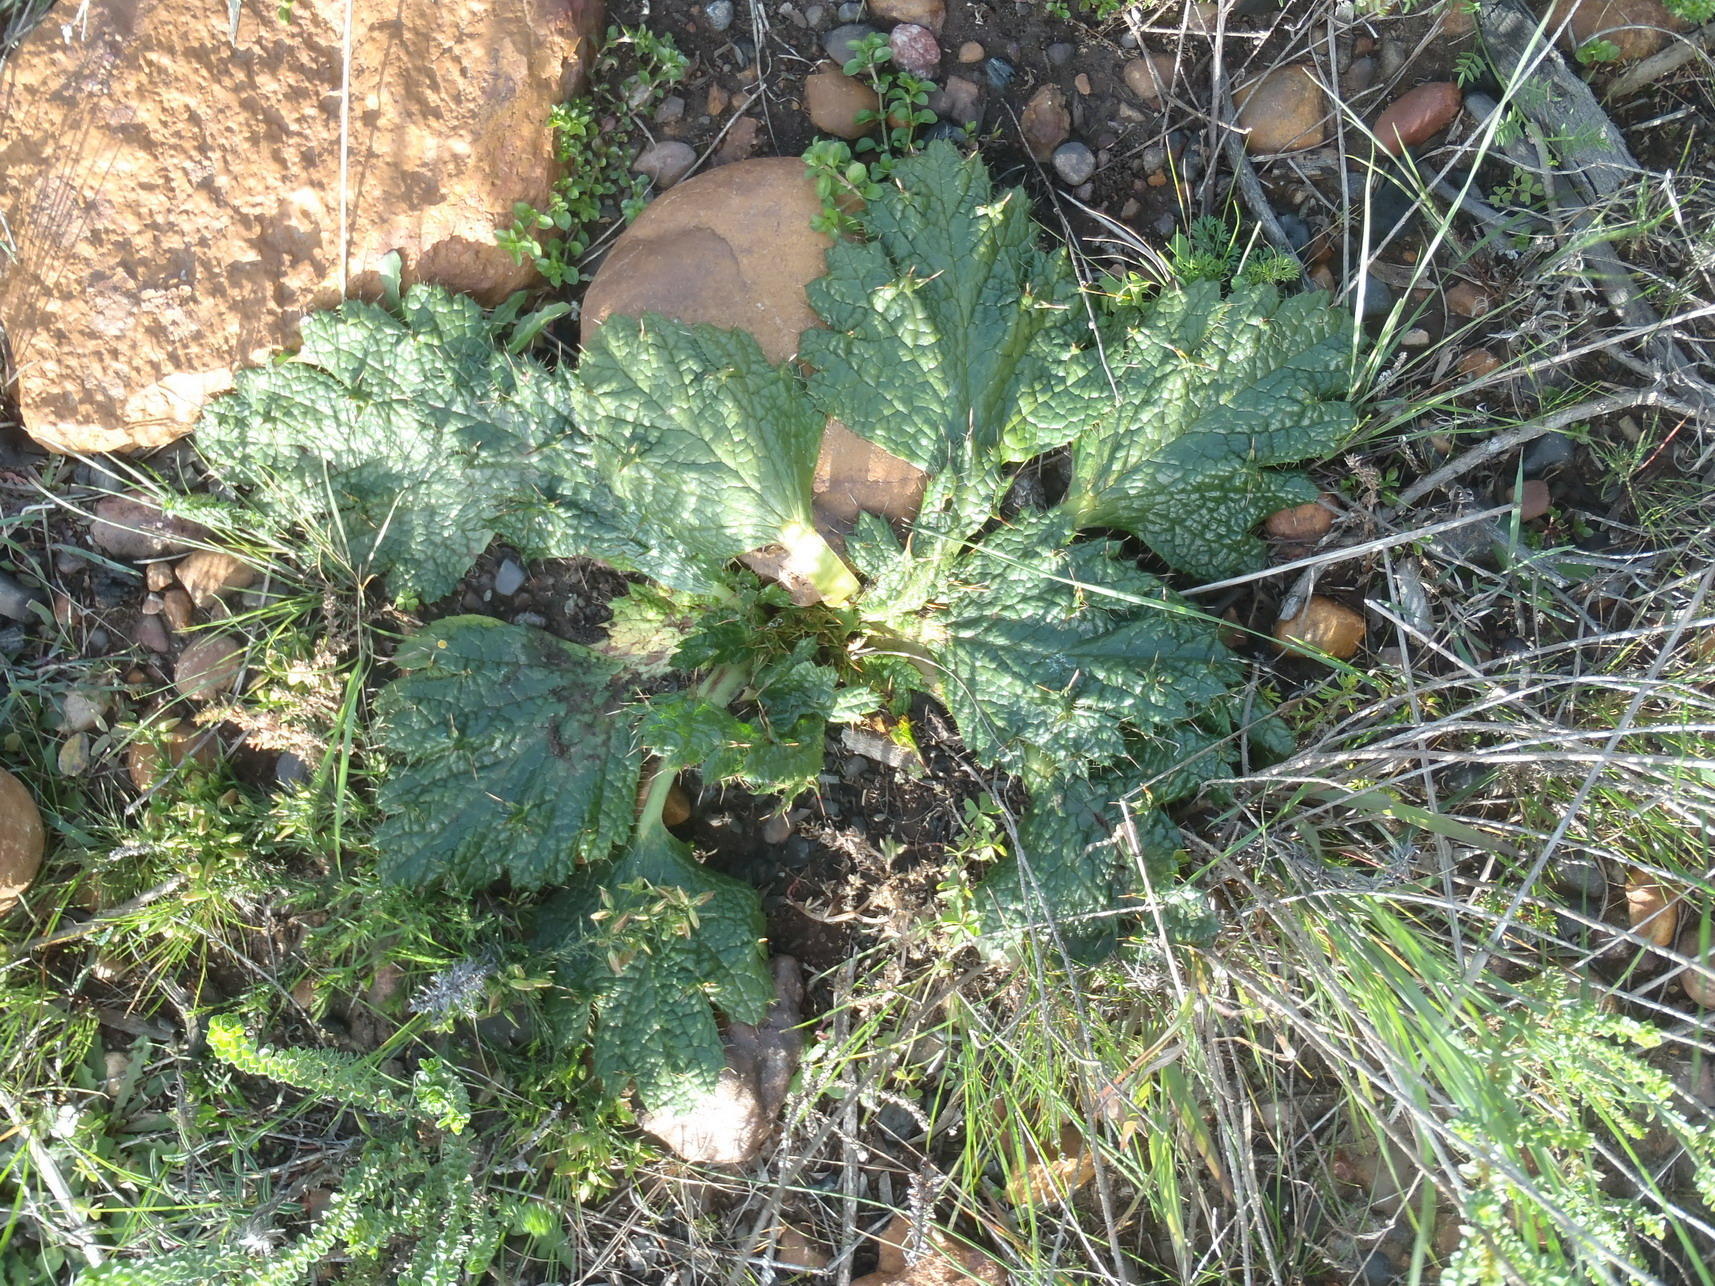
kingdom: Plantae
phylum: Tracheophyta
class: Magnoliopsida
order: Apiales
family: Apiaceae
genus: Arctopus
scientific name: Arctopus echinatus
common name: Platdoring
